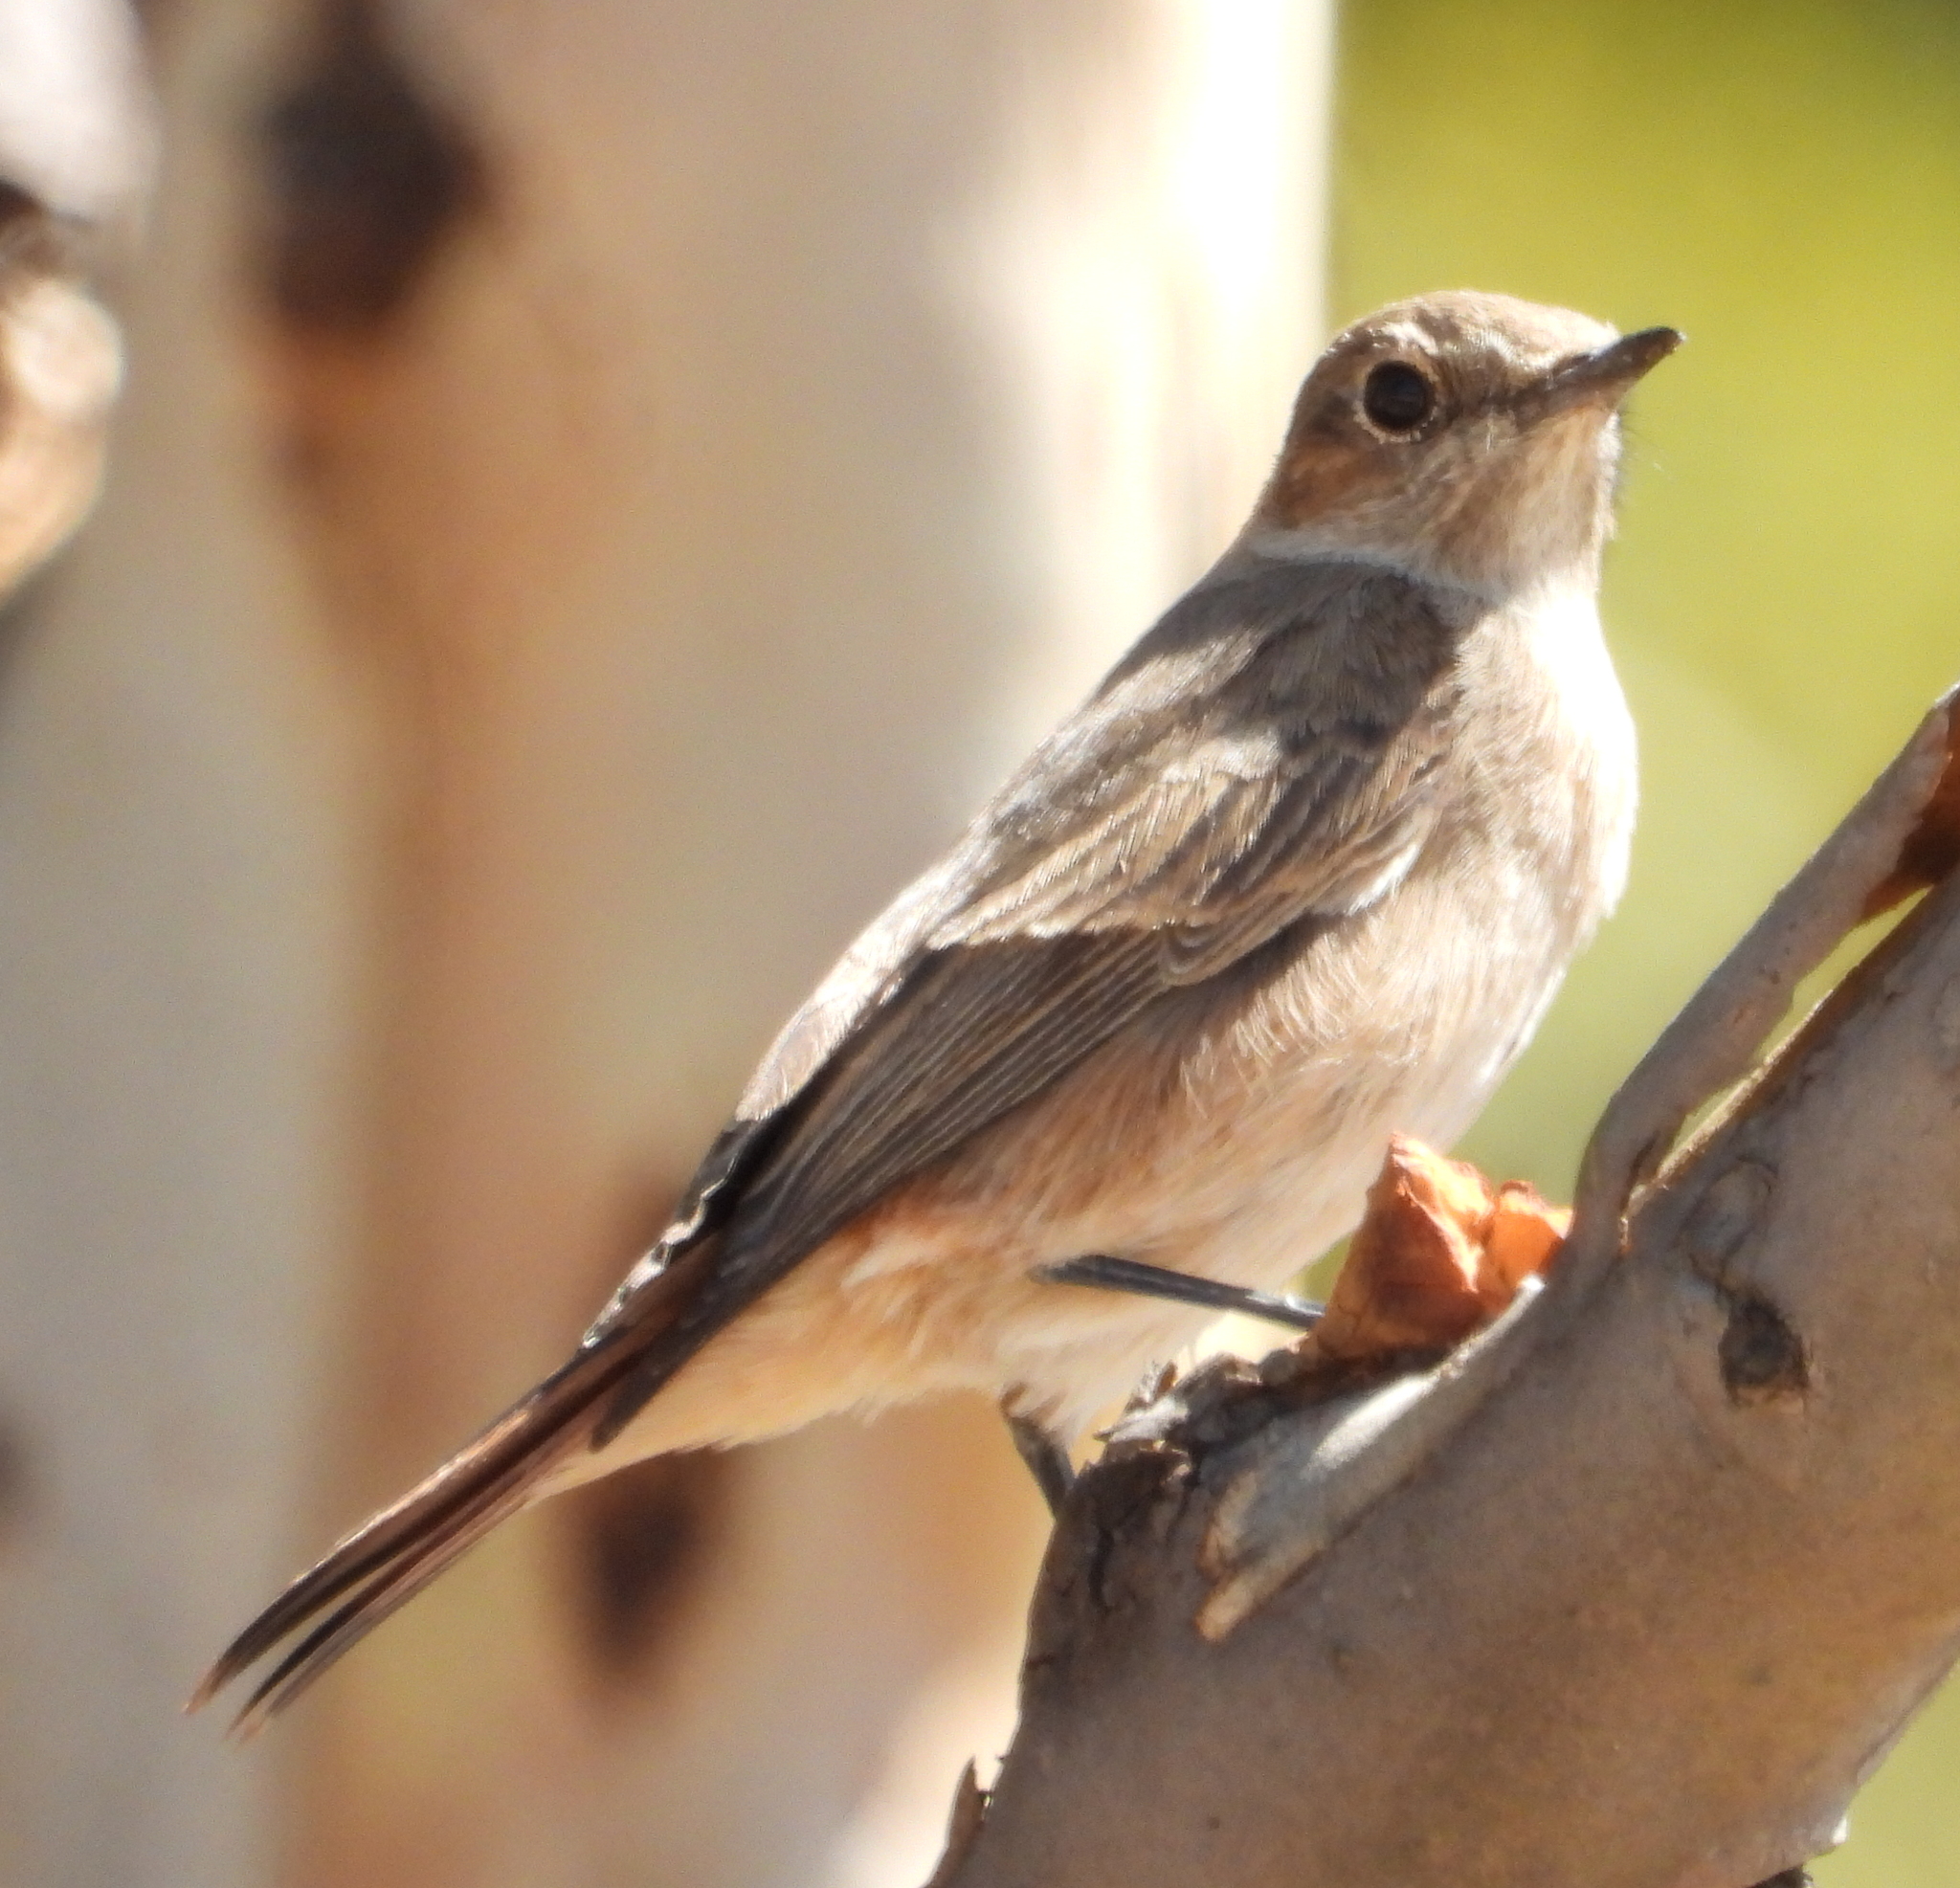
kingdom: Animalia
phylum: Chordata
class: Aves
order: Passeriformes
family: Muscicapidae
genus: Oenanthe
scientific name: Oenanthe familiaris
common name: Familiar chat
